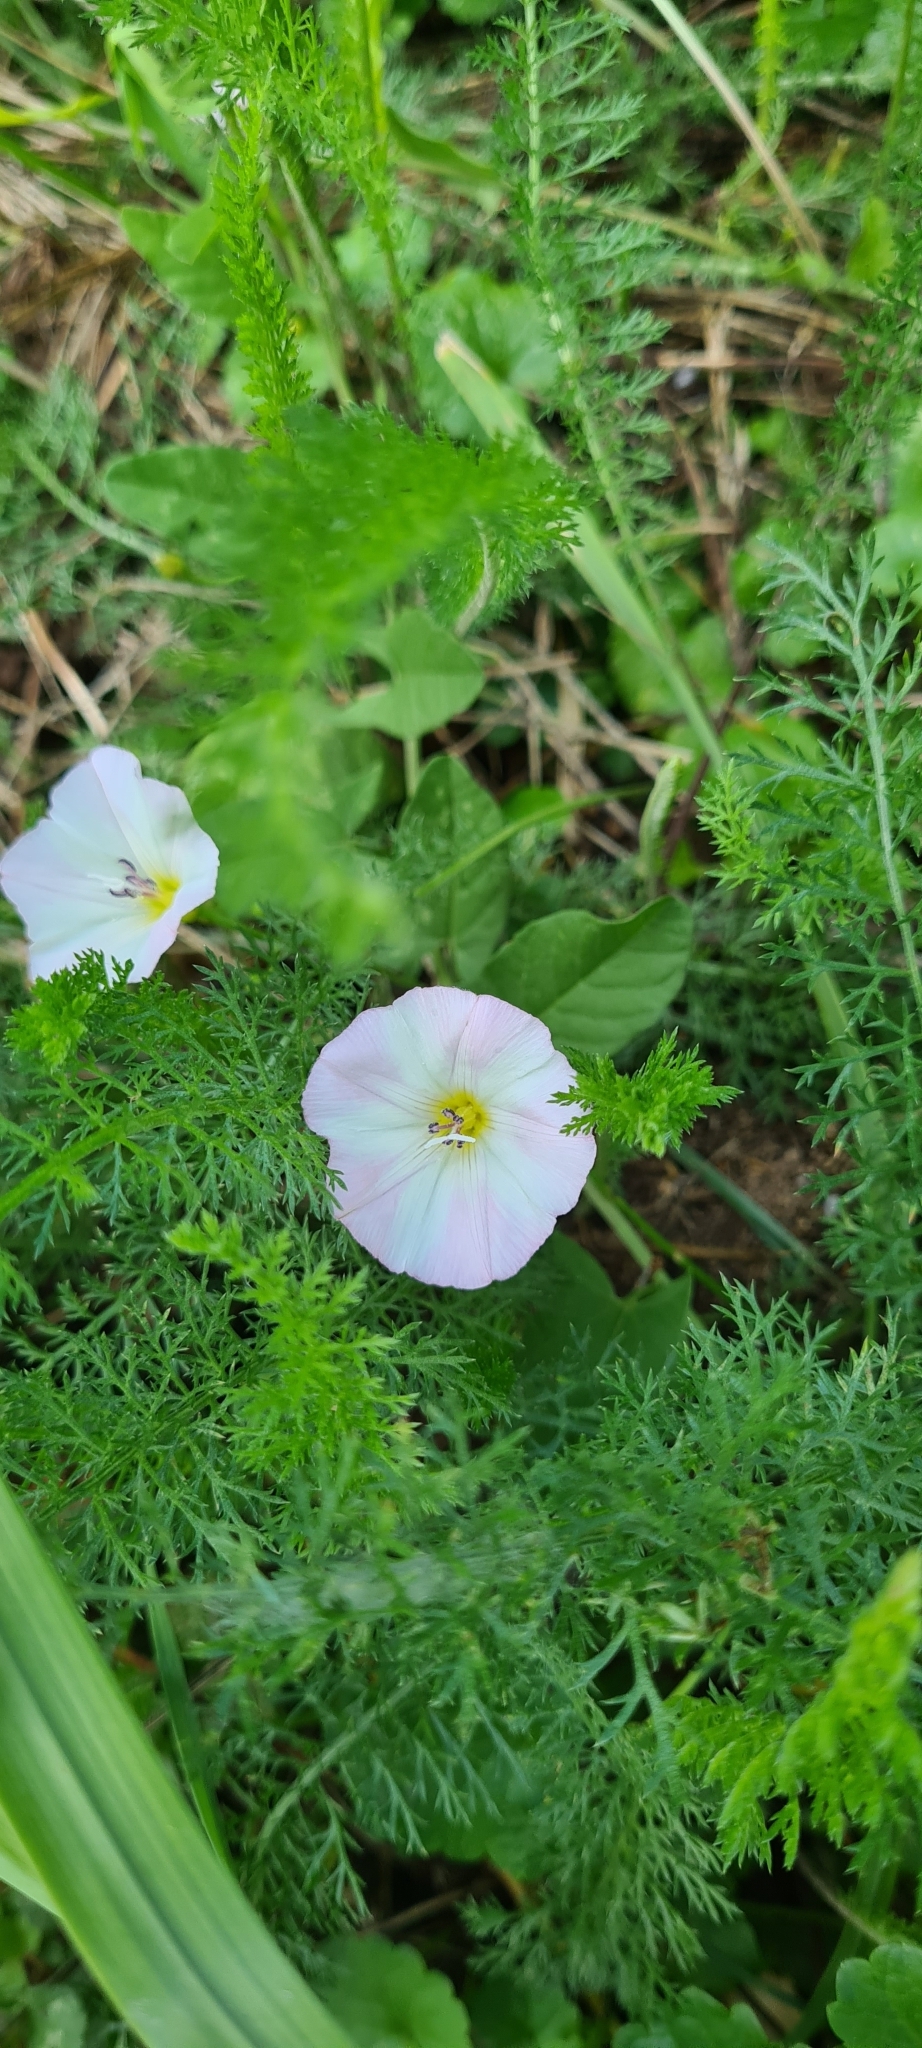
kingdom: Plantae
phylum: Tracheophyta
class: Magnoliopsida
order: Solanales
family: Convolvulaceae
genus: Convolvulus
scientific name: Convolvulus arvensis
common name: Field bindweed
